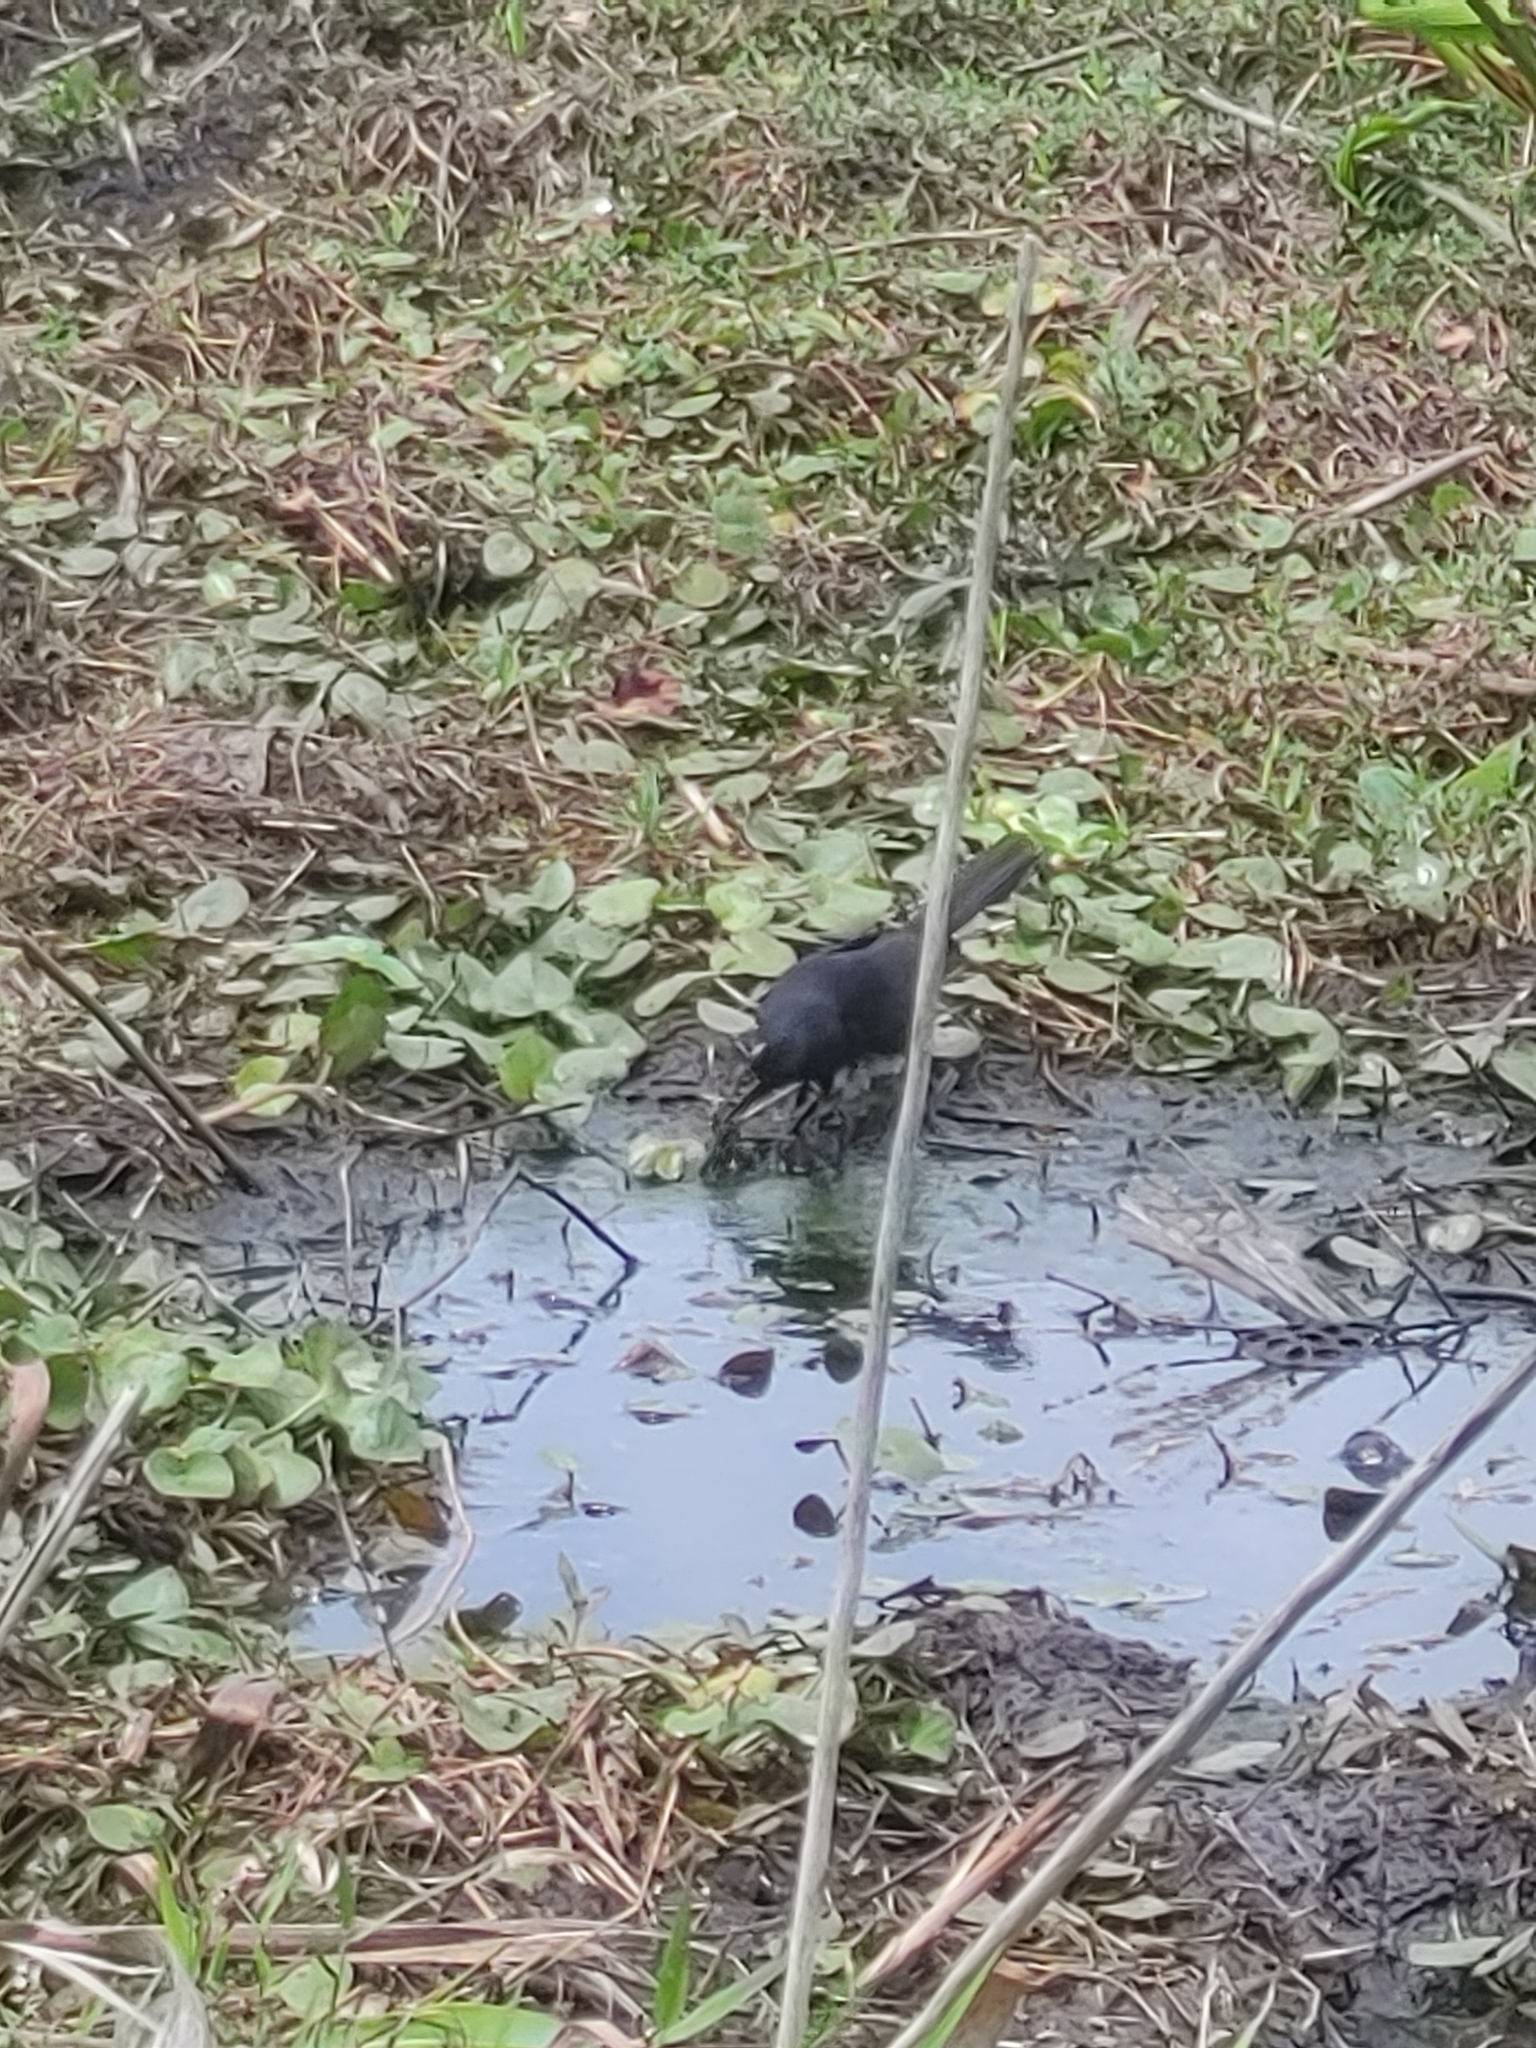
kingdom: Animalia
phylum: Chordata
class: Aves
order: Passeriformes
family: Icteridae
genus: Quiscalus
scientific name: Quiscalus major
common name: Boat-tailed grackle
